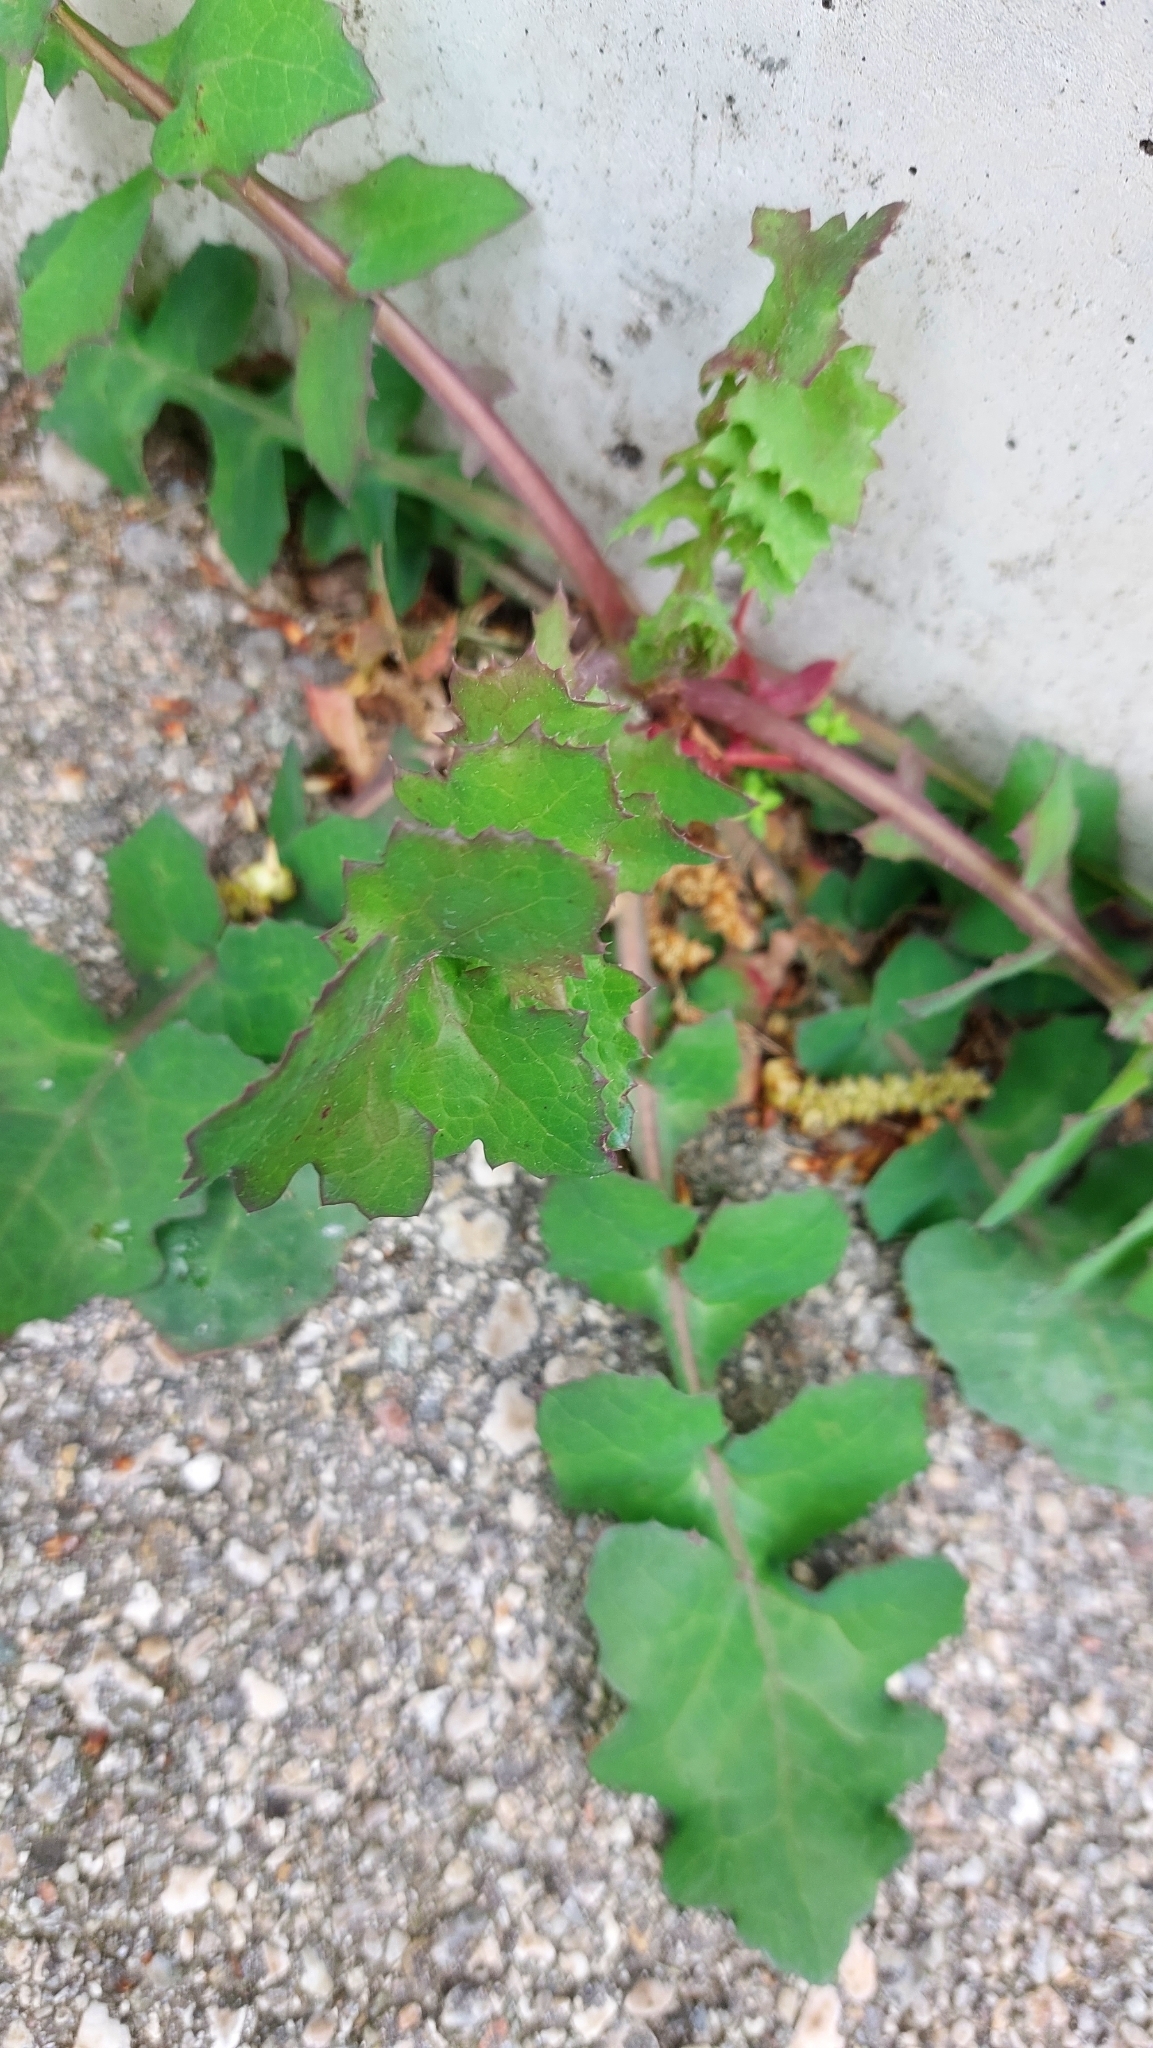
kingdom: Plantae
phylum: Tracheophyta
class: Magnoliopsida
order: Asterales
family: Asteraceae
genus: Sonchus
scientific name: Sonchus oleraceus
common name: Common sowthistle
